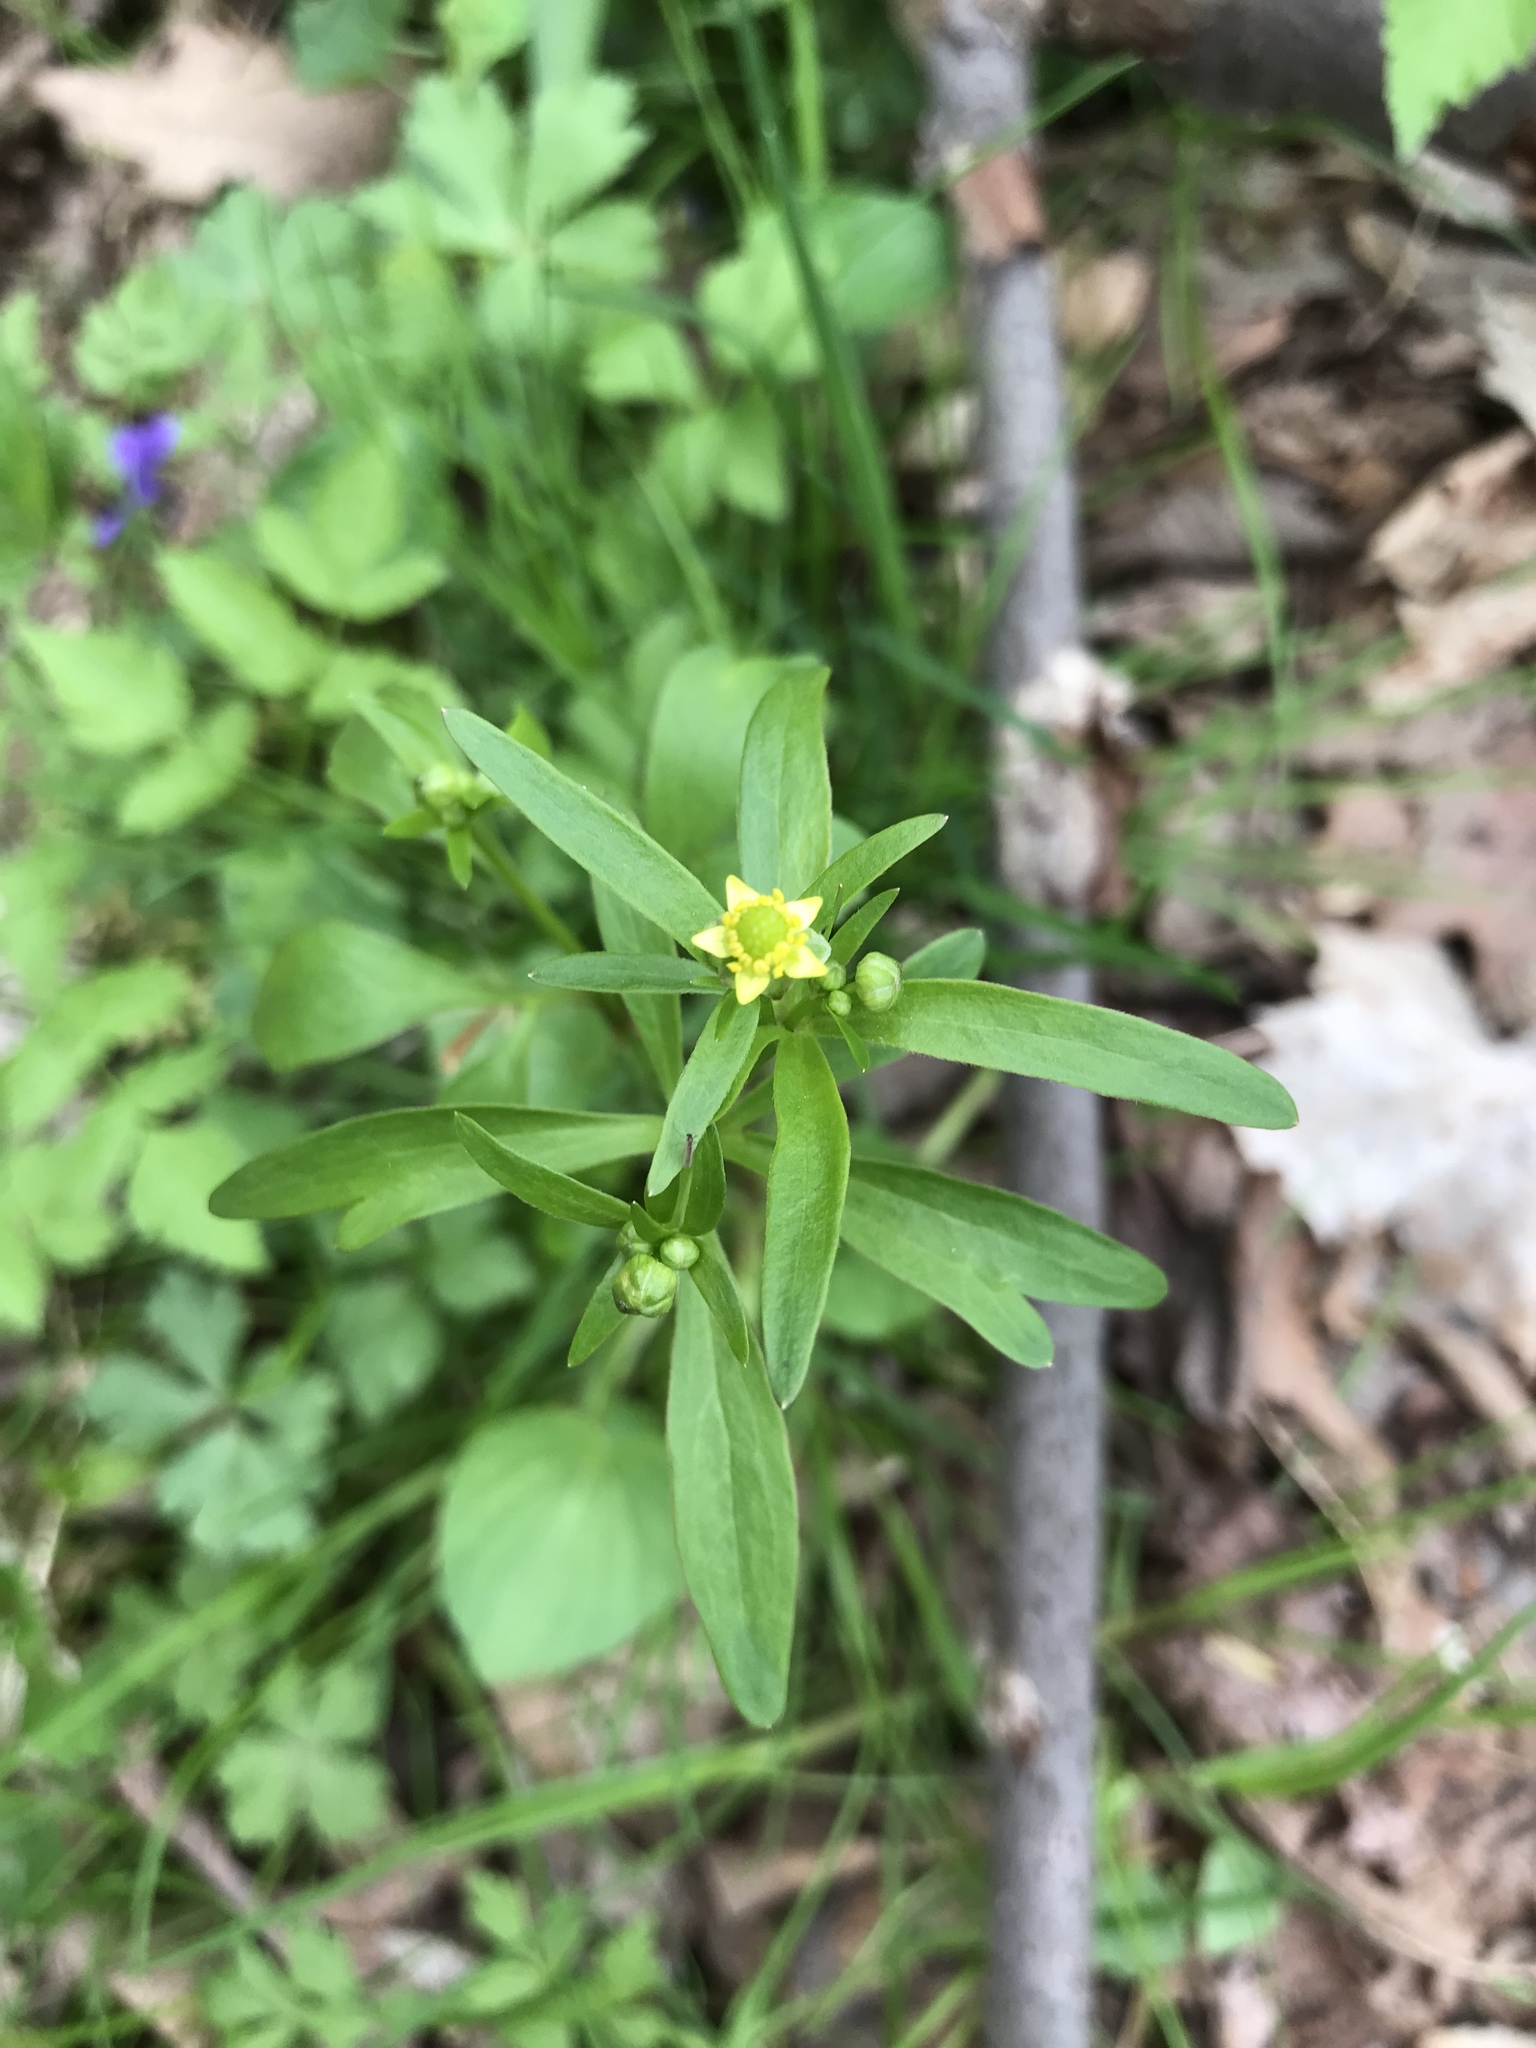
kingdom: Plantae
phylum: Tracheophyta
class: Magnoliopsida
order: Ranunculales
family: Ranunculaceae
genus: Ranunculus
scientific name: Ranunculus abortivus
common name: Early wood buttercup
